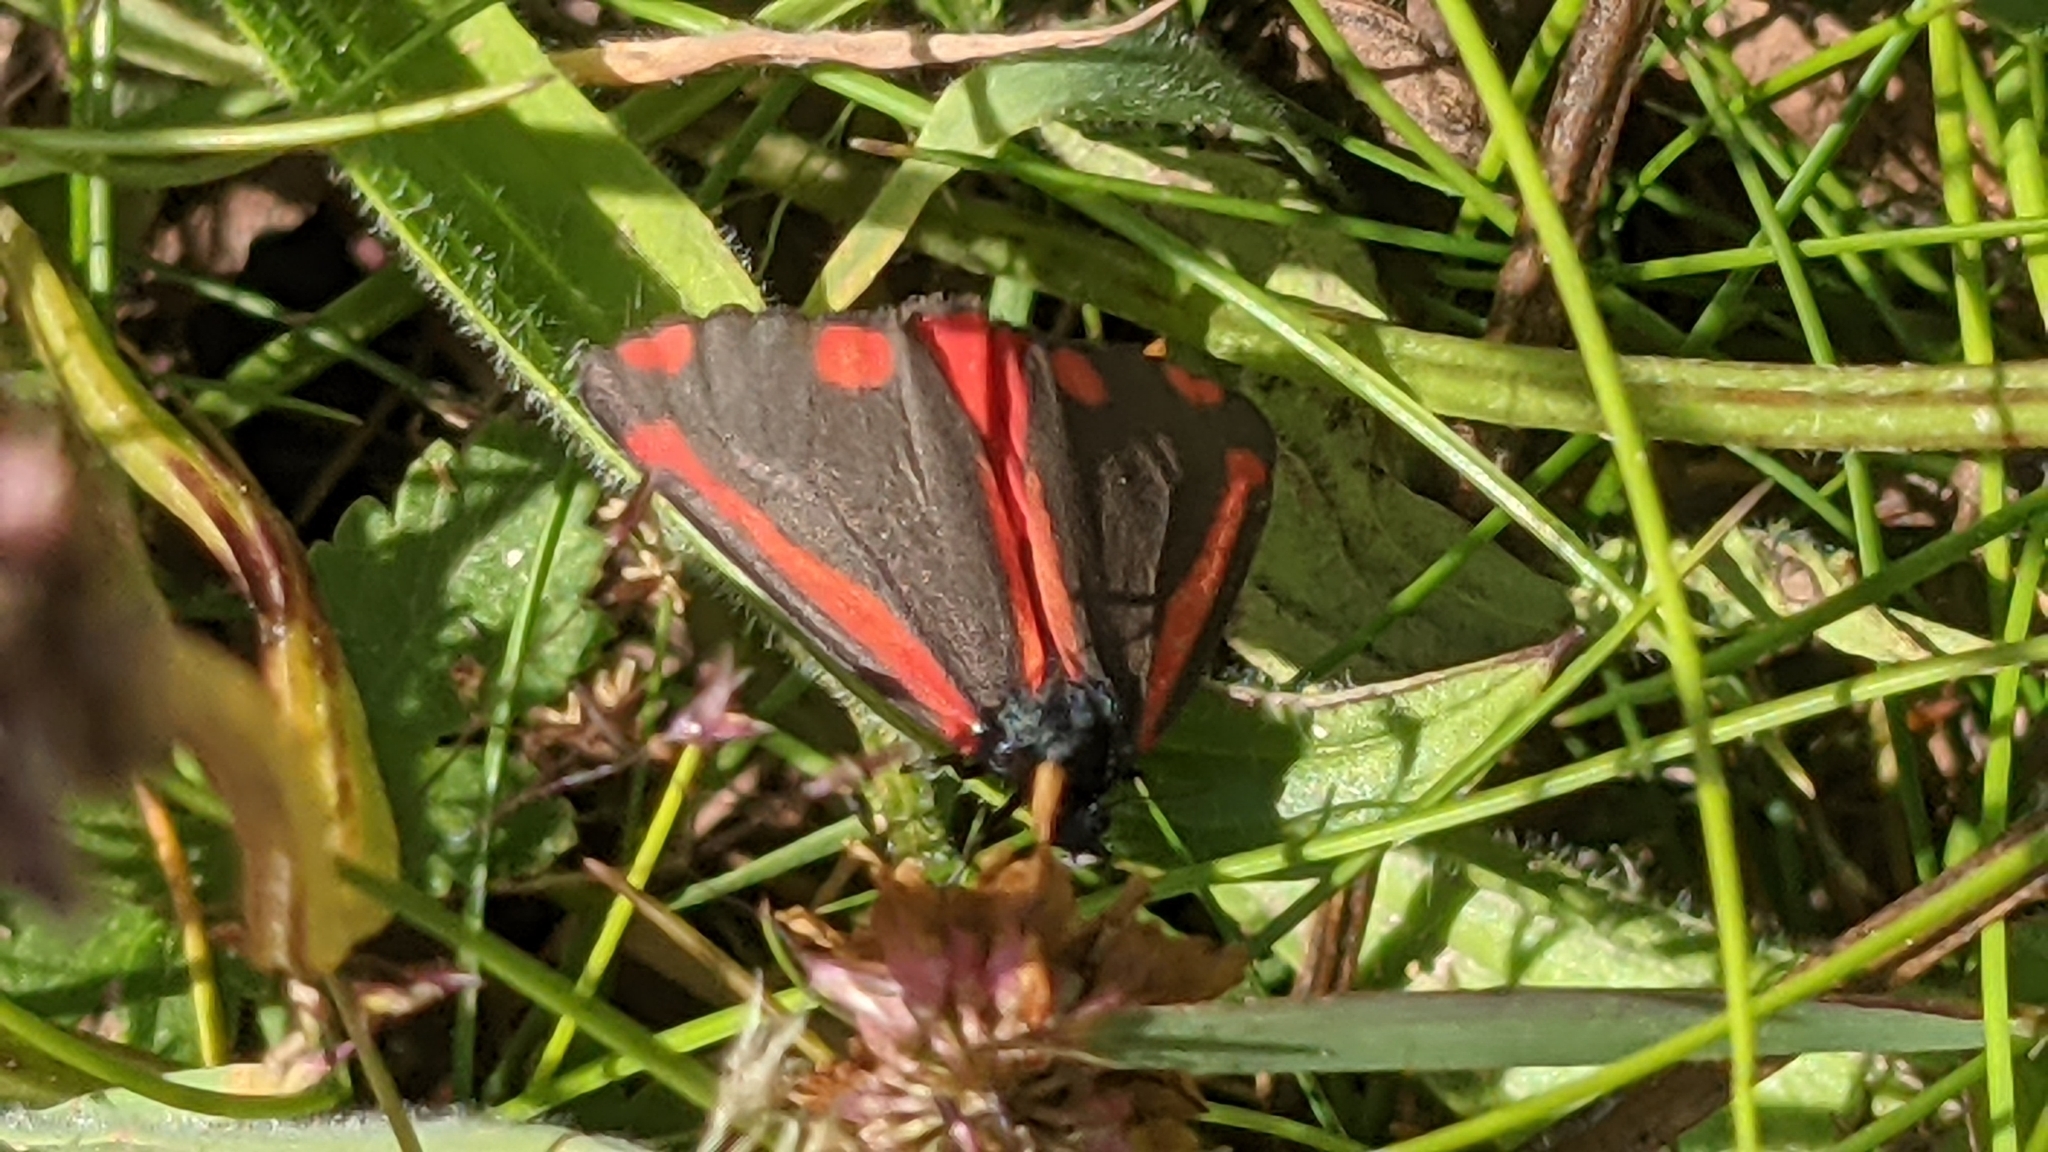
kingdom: Animalia
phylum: Arthropoda
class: Insecta
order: Lepidoptera
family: Erebidae
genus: Tyria
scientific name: Tyria jacobaeae
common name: Cinnabar
